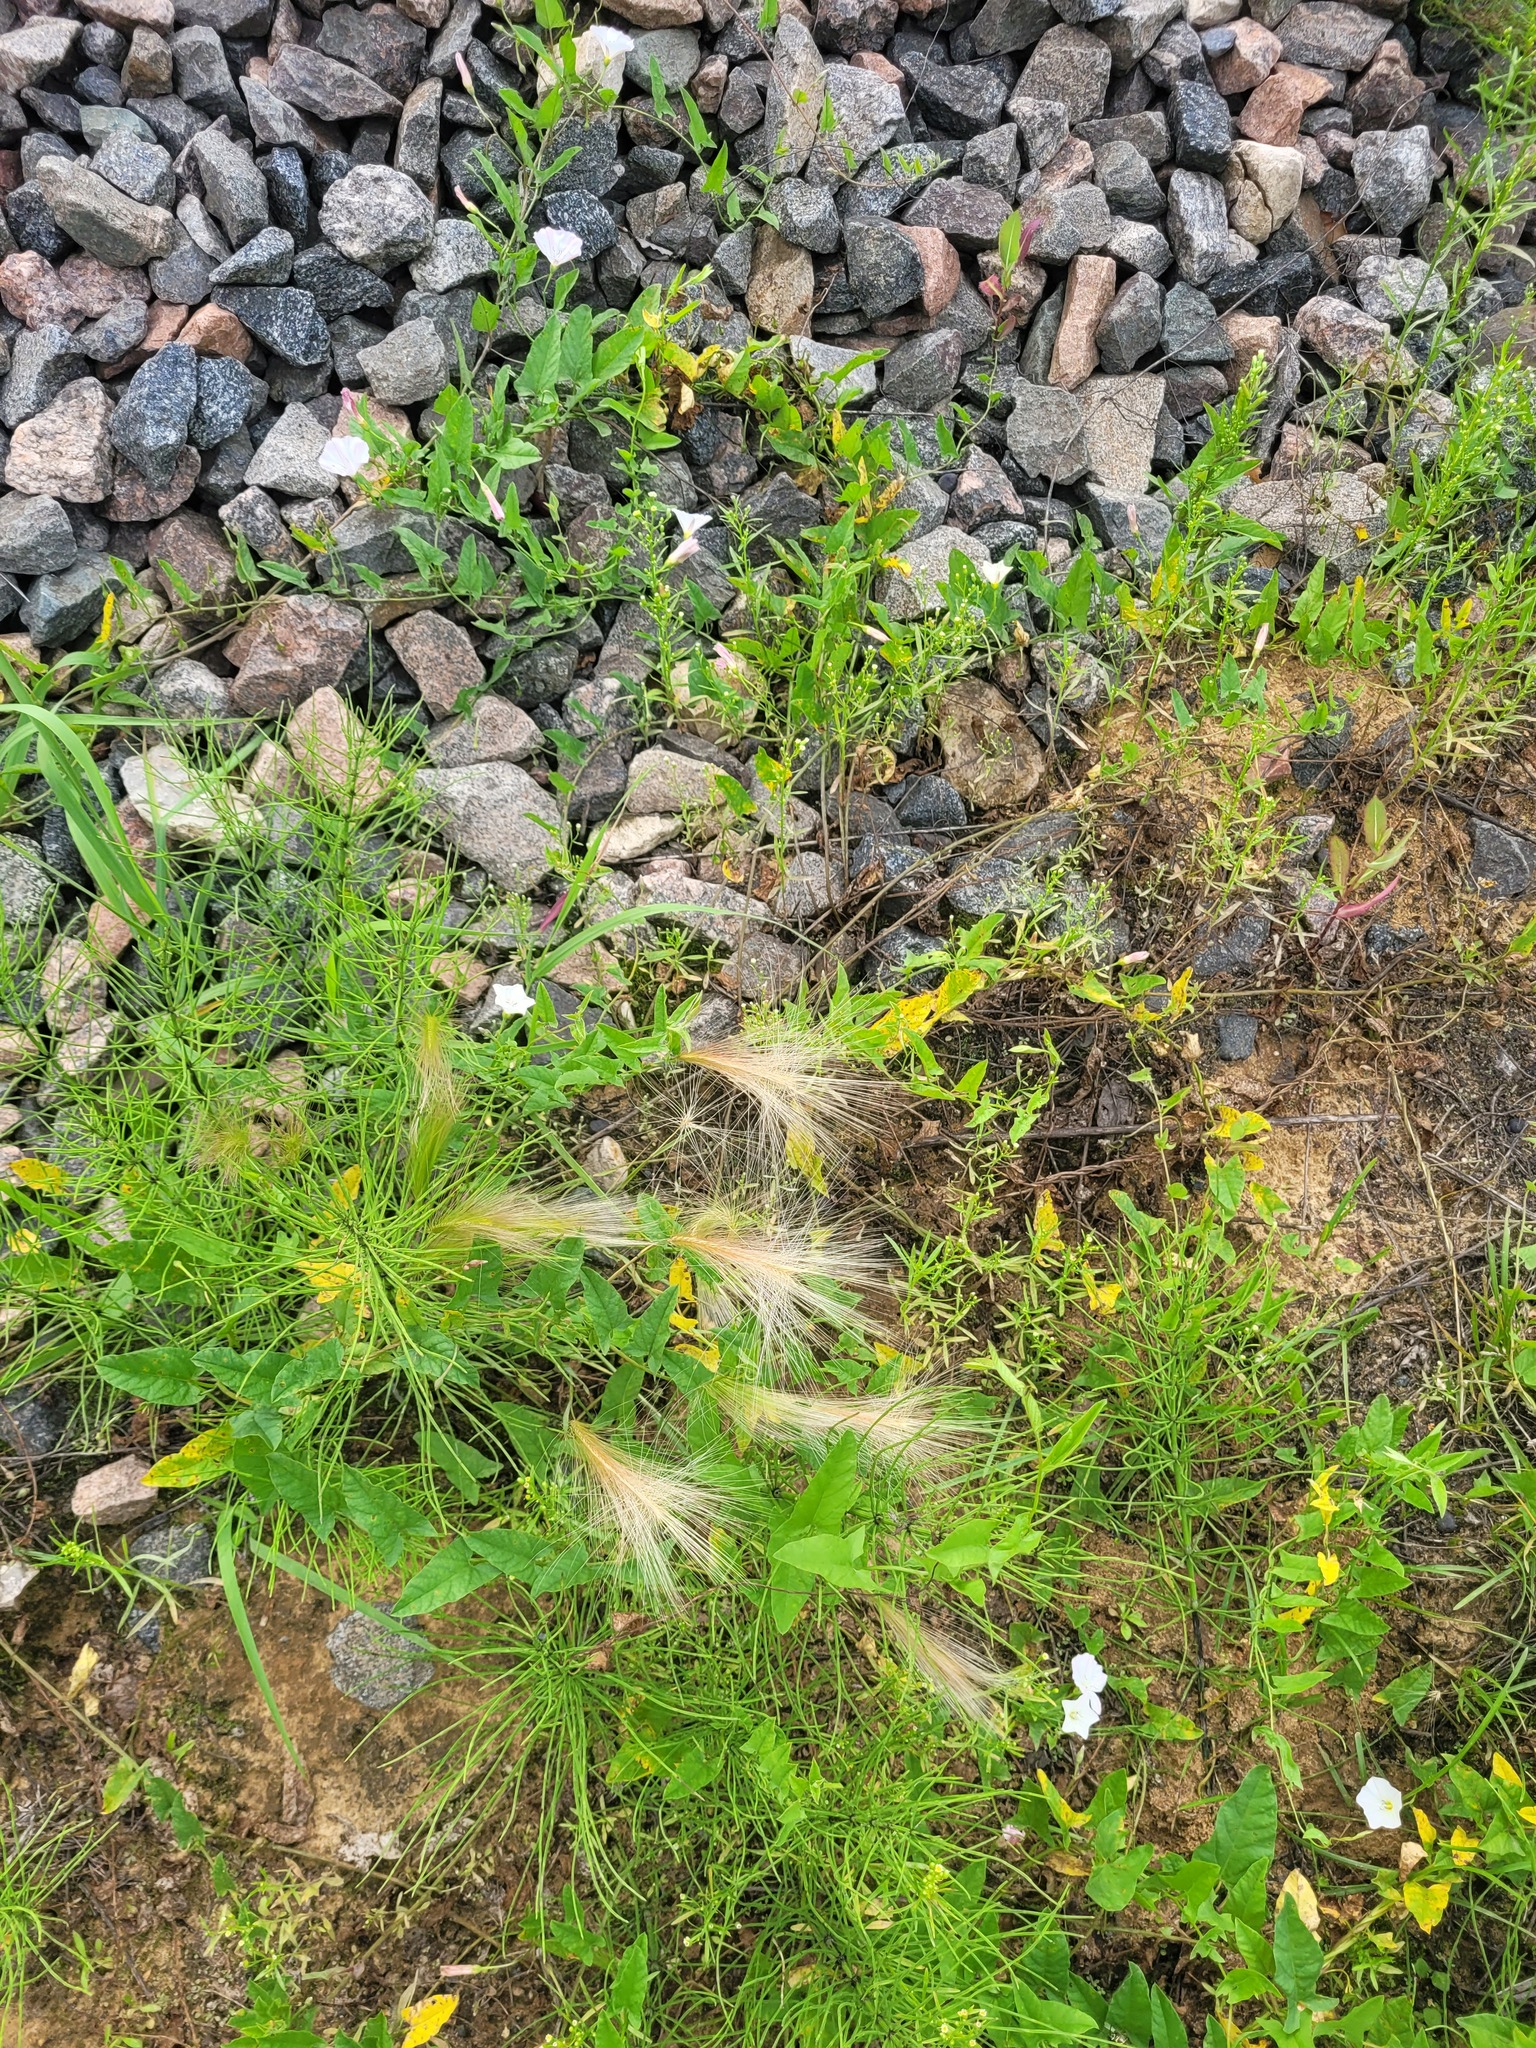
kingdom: Plantae
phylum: Tracheophyta
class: Liliopsida
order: Poales
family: Poaceae
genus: Hordeum
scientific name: Hordeum jubatum
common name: Foxtail barley
